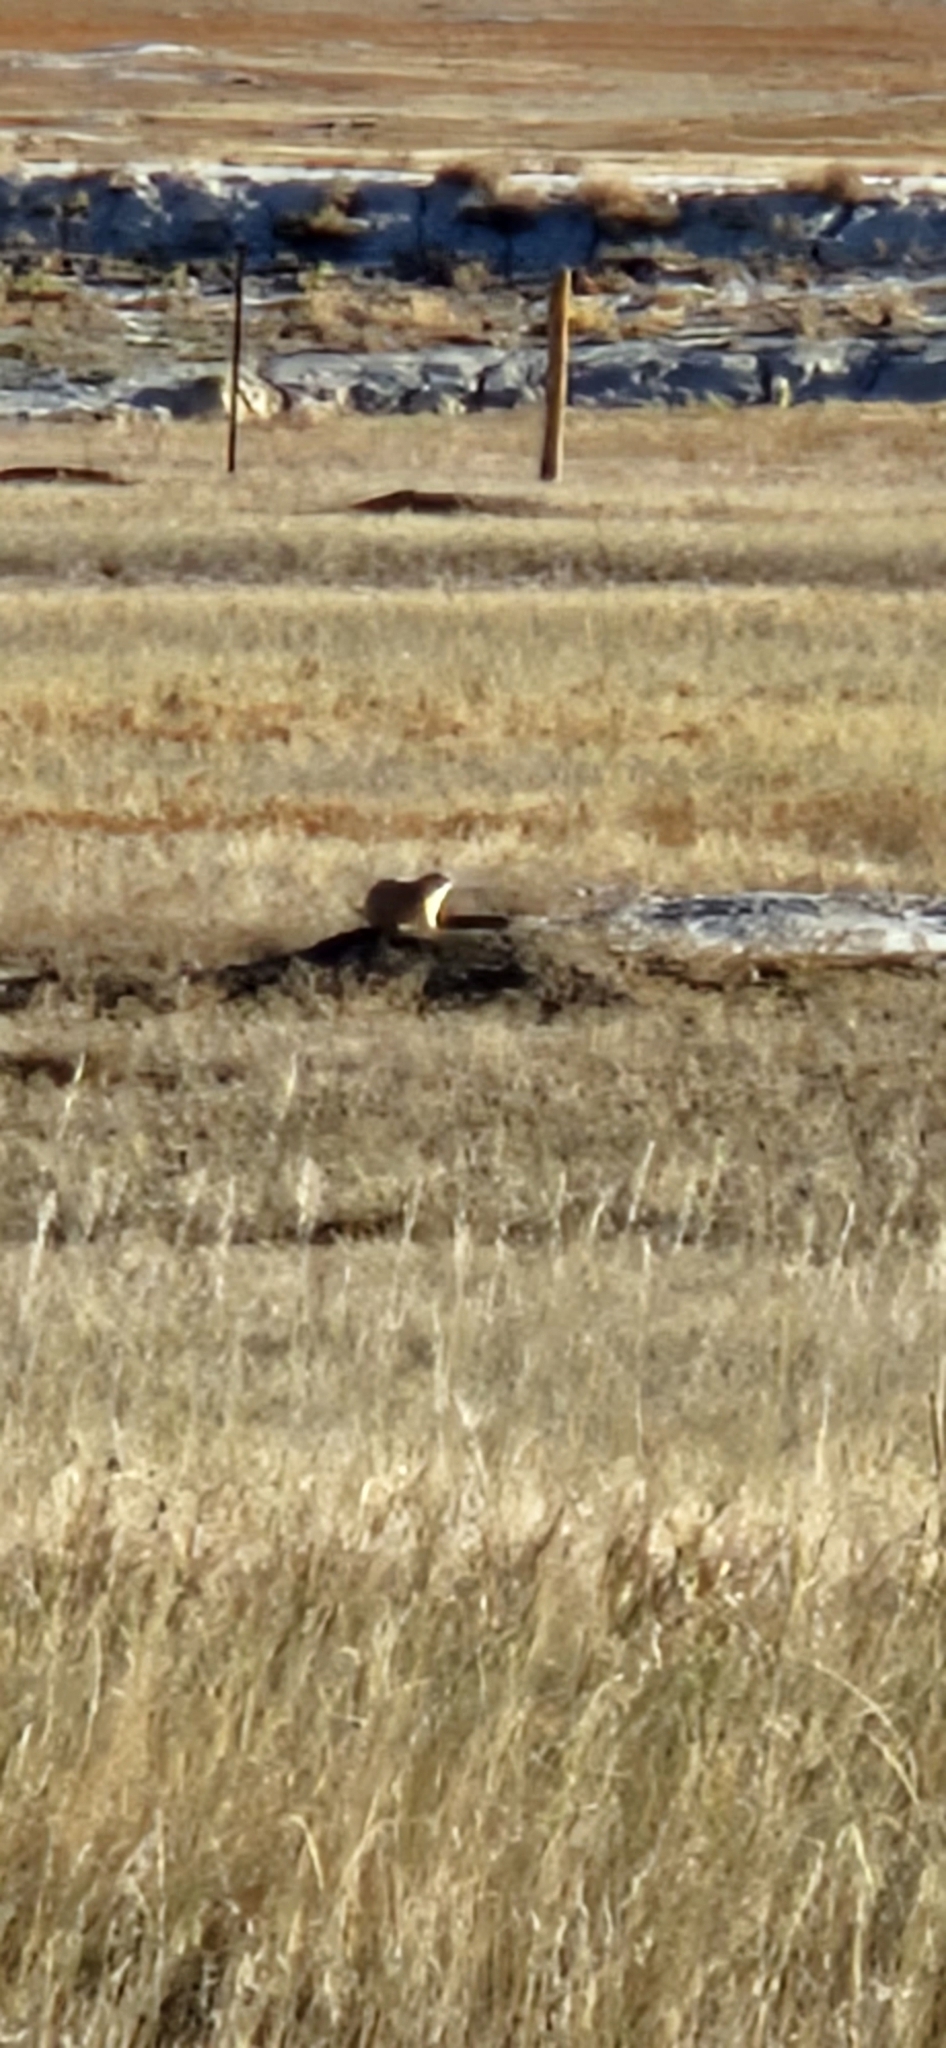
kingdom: Animalia
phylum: Chordata
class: Mammalia
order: Rodentia
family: Sciuridae
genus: Cynomys
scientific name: Cynomys ludovicianus
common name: Black-tailed prairie dog
